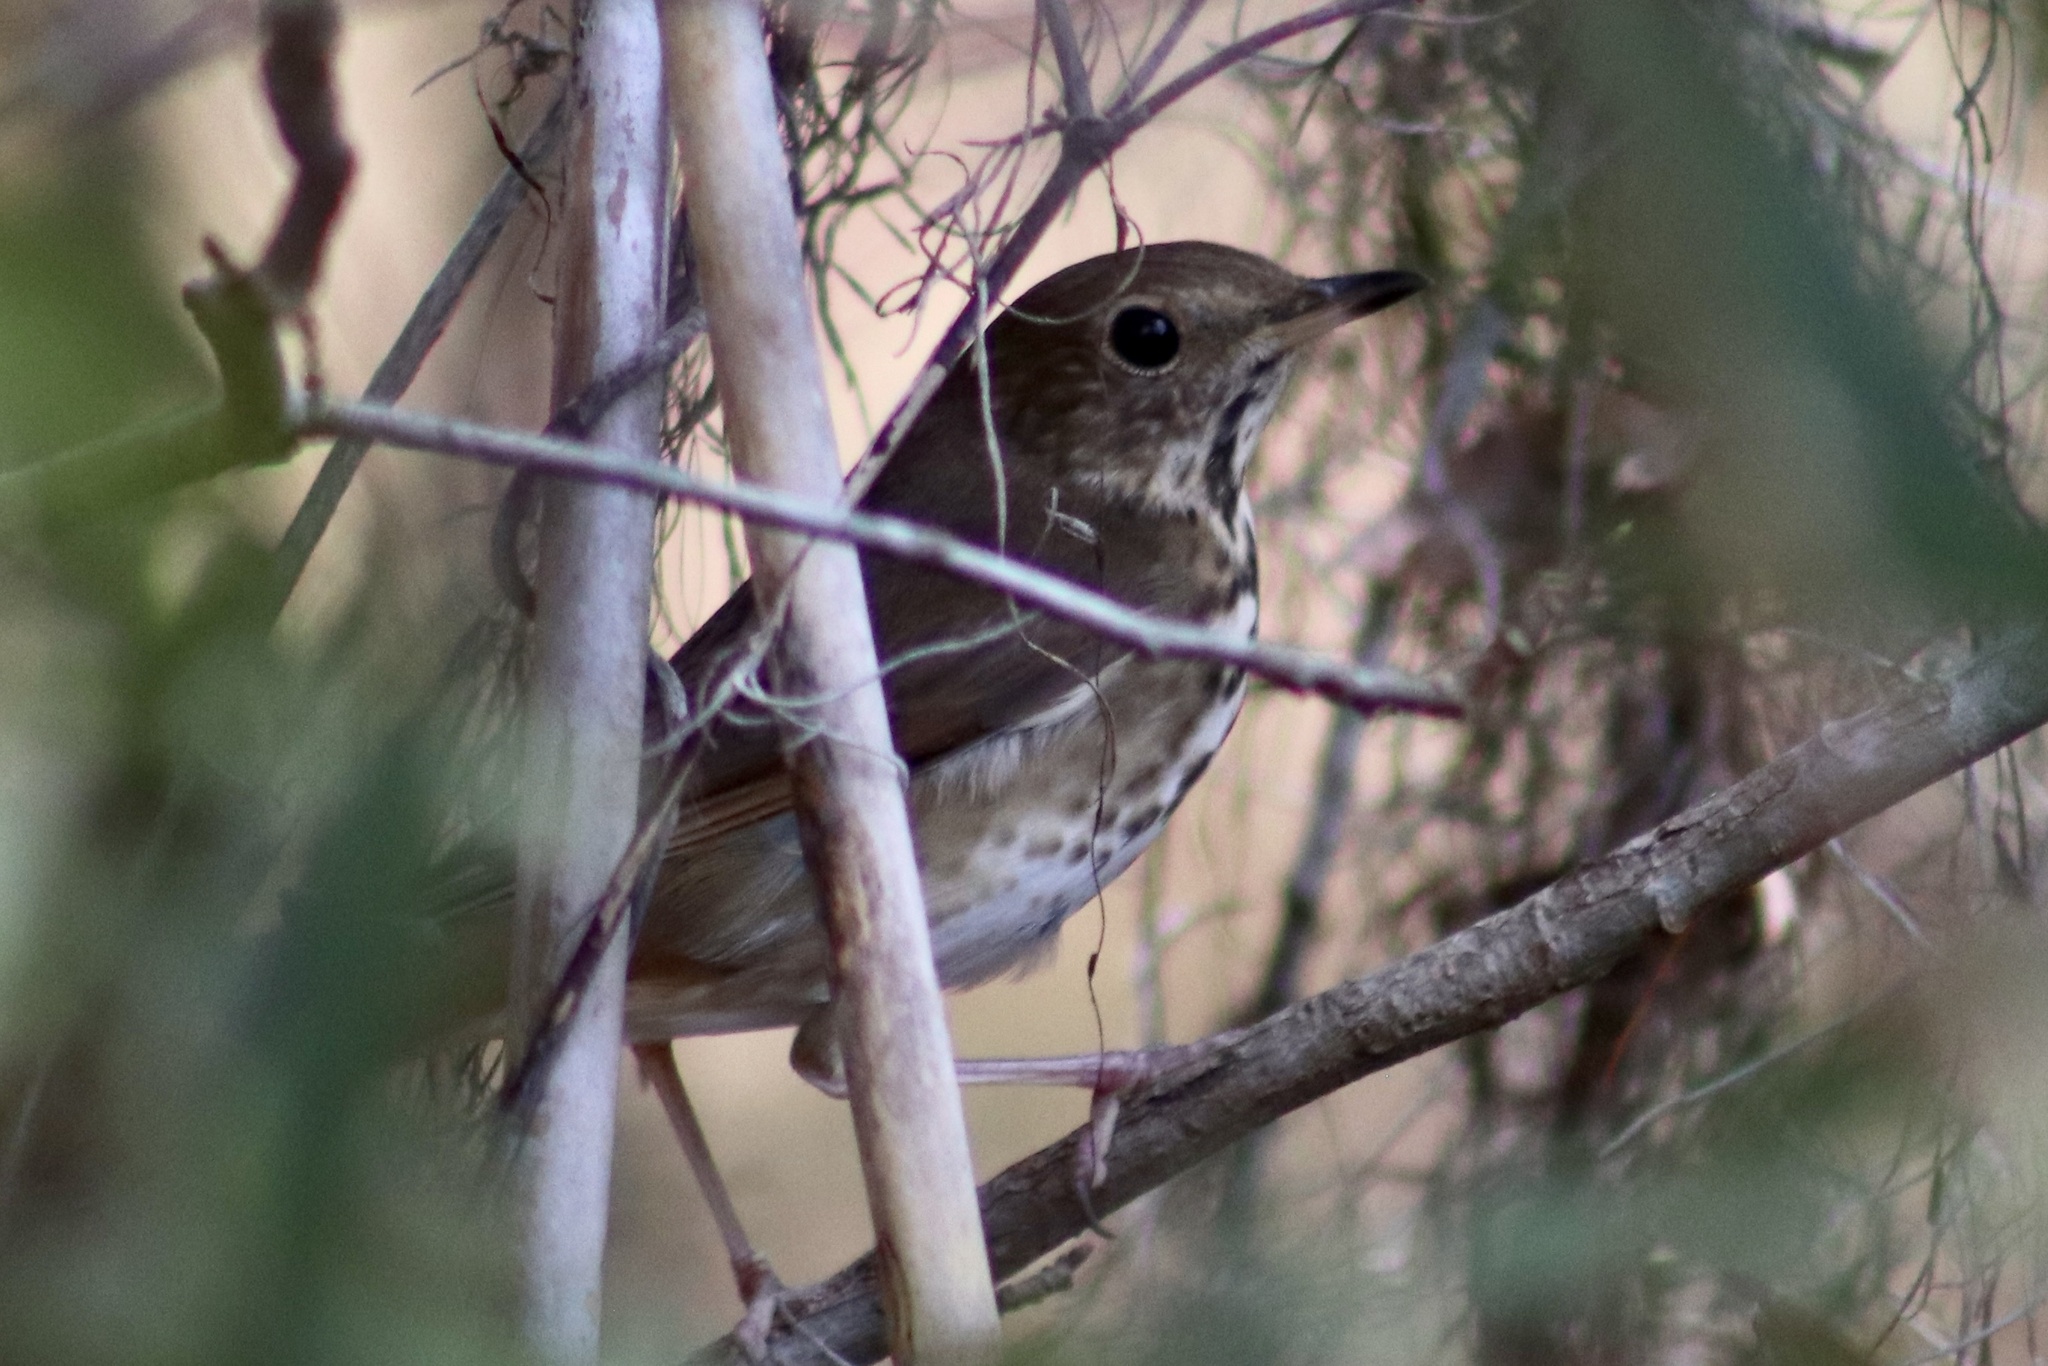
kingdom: Animalia
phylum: Chordata
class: Aves
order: Passeriformes
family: Turdidae
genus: Catharus
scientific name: Catharus guttatus
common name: Hermit thrush
